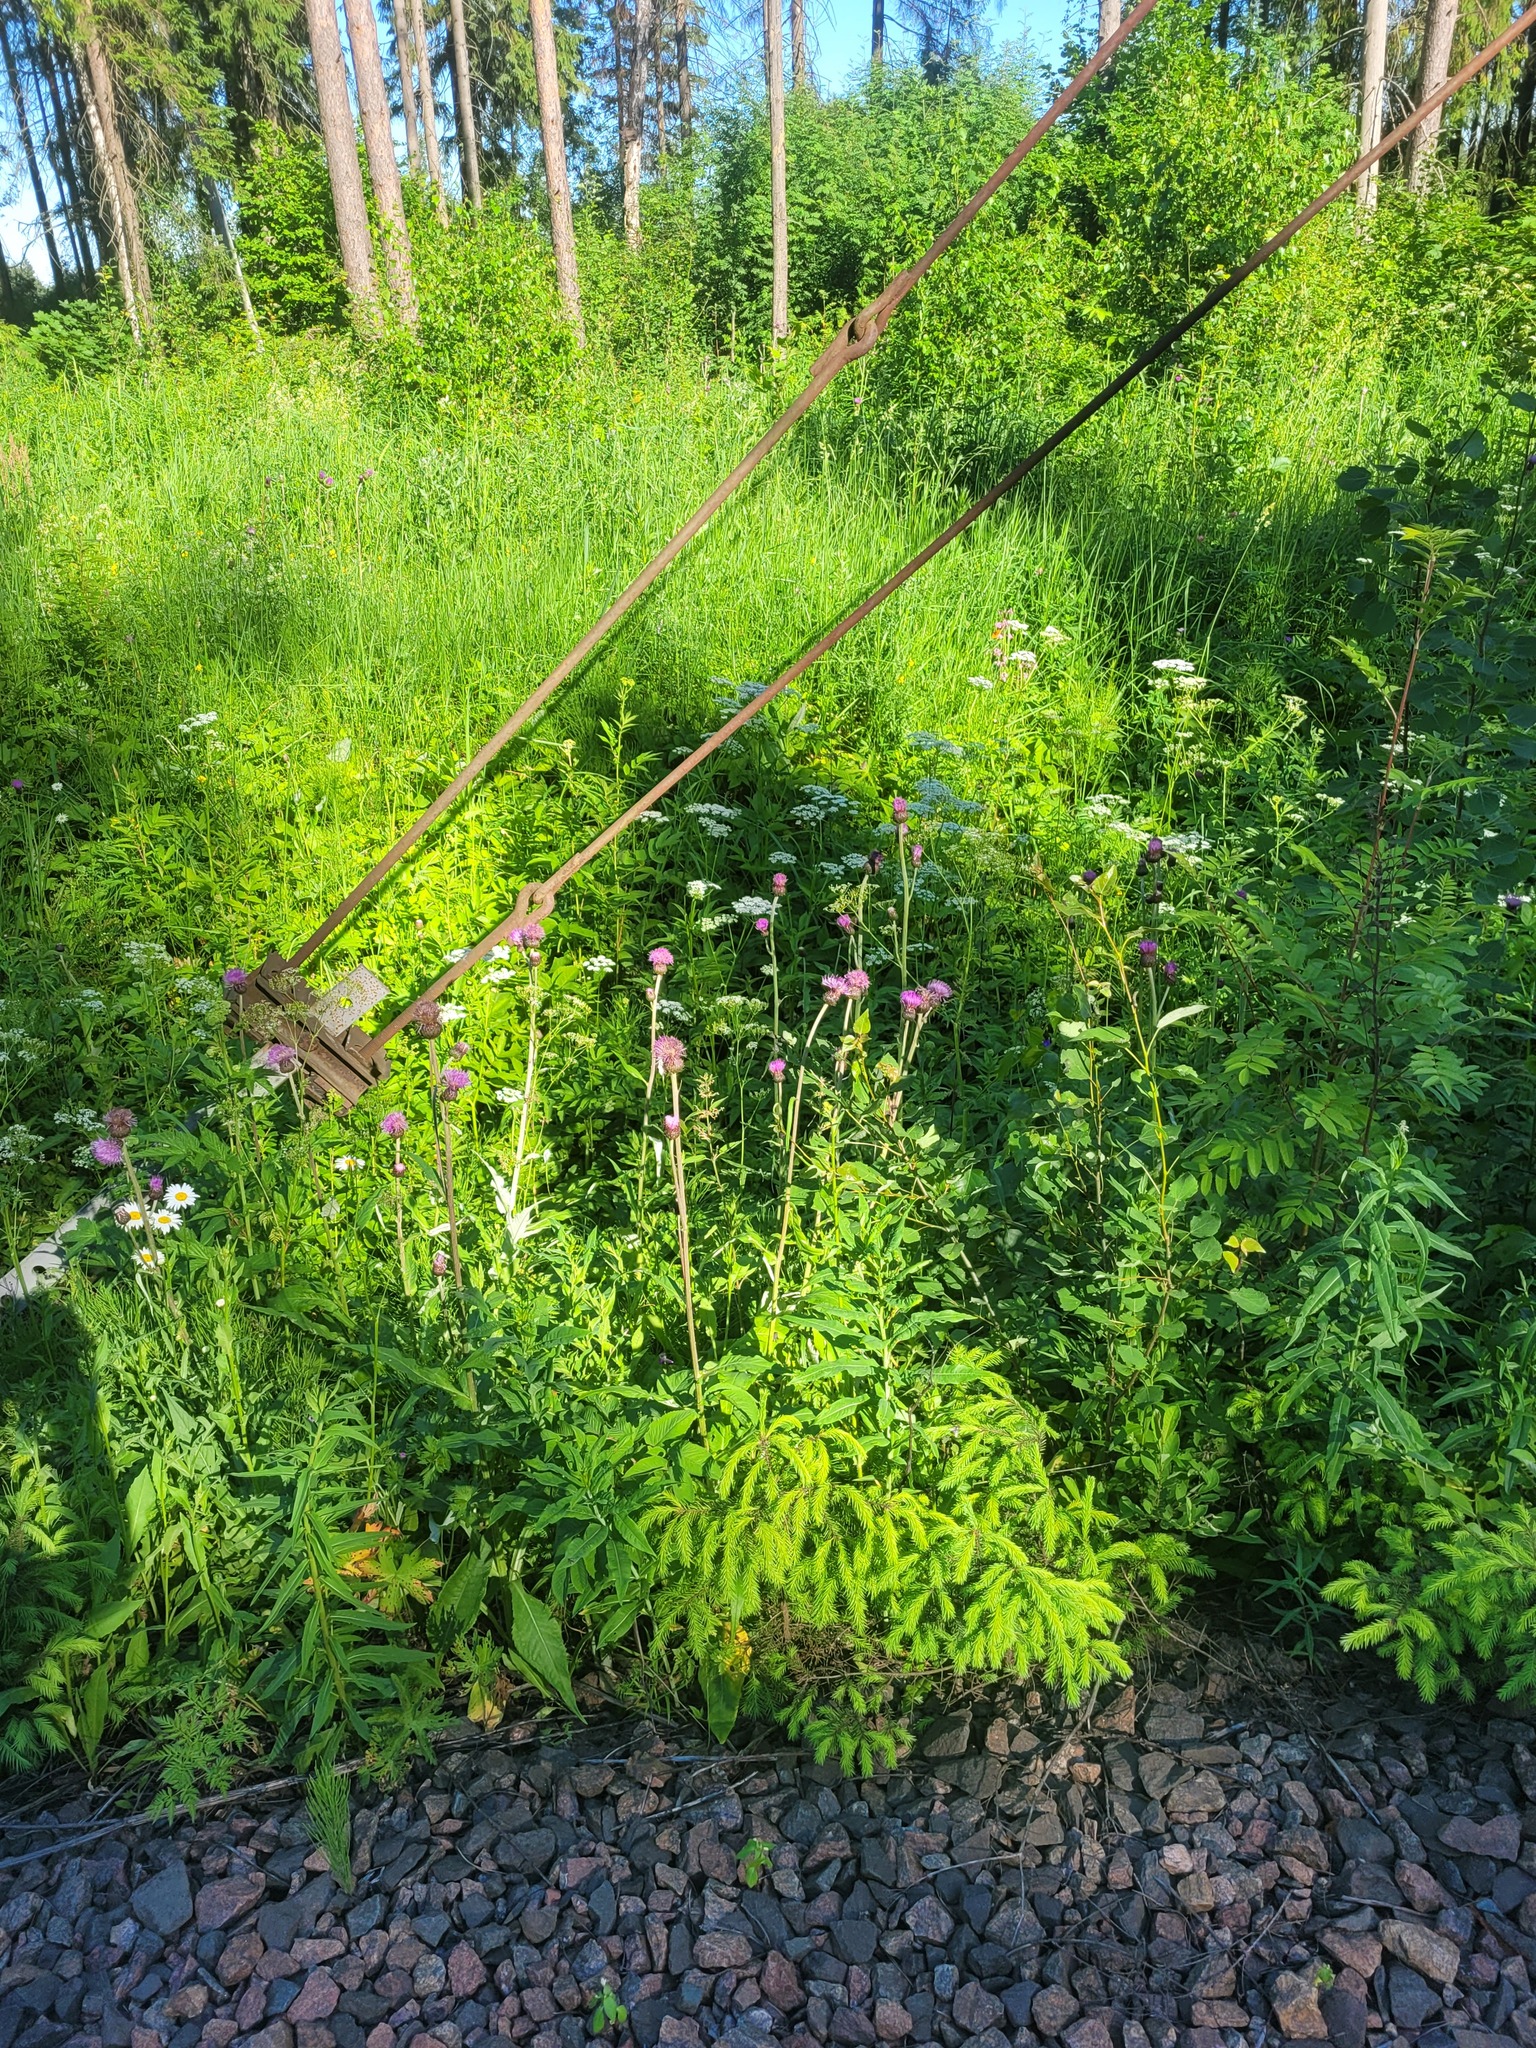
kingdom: Plantae
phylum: Tracheophyta
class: Magnoliopsida
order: Asterales
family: Asteraceae
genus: Cirsium
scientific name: Cirsium heterophyllum
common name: Melancholy thistle
